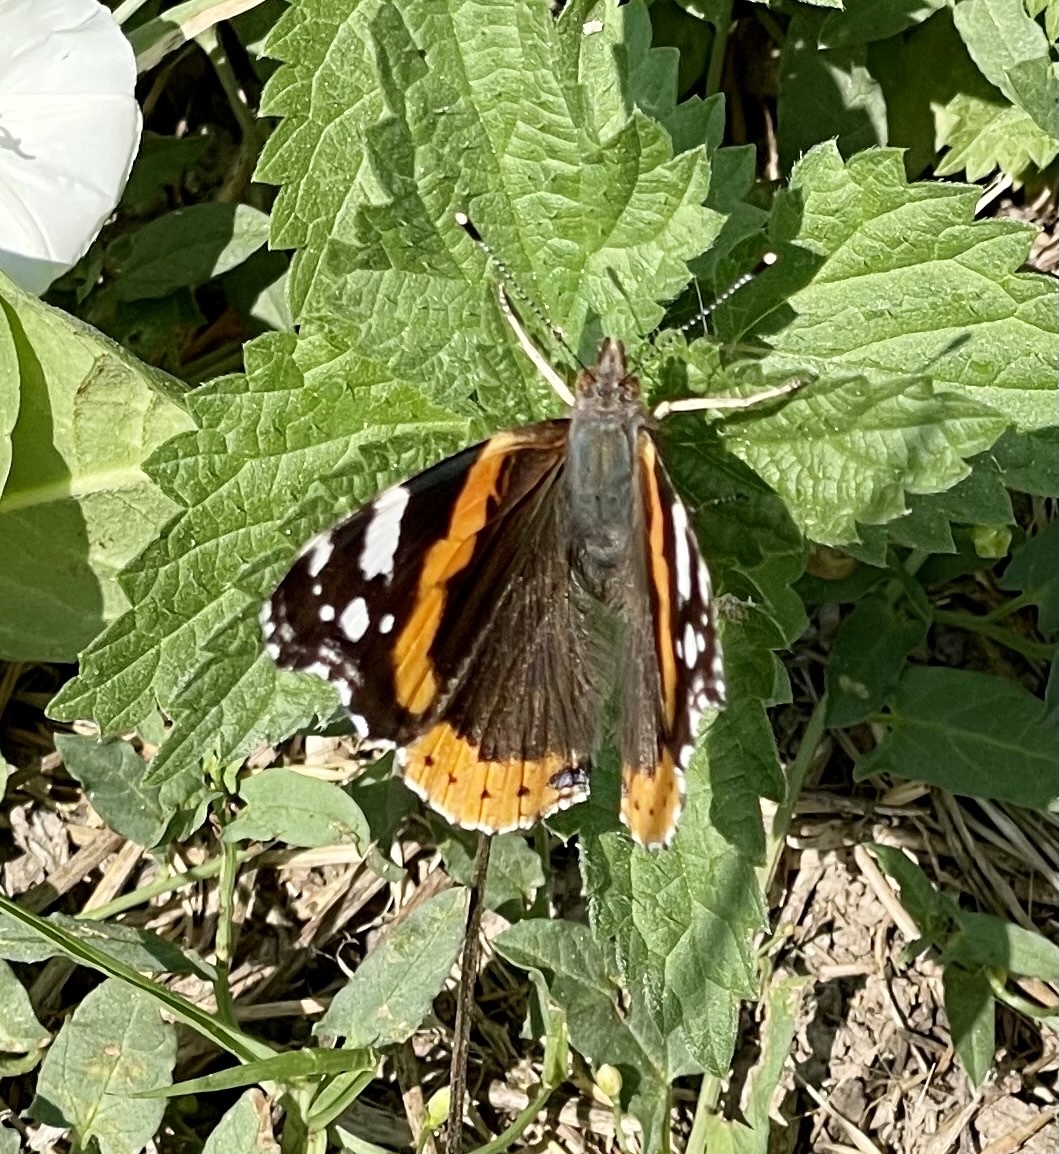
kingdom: Animalia
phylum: Arthropoda
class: Insecta
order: Lepidoptera
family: Nymphalidae
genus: Vanessa
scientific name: Vanessa atalanta
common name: Red admiral
